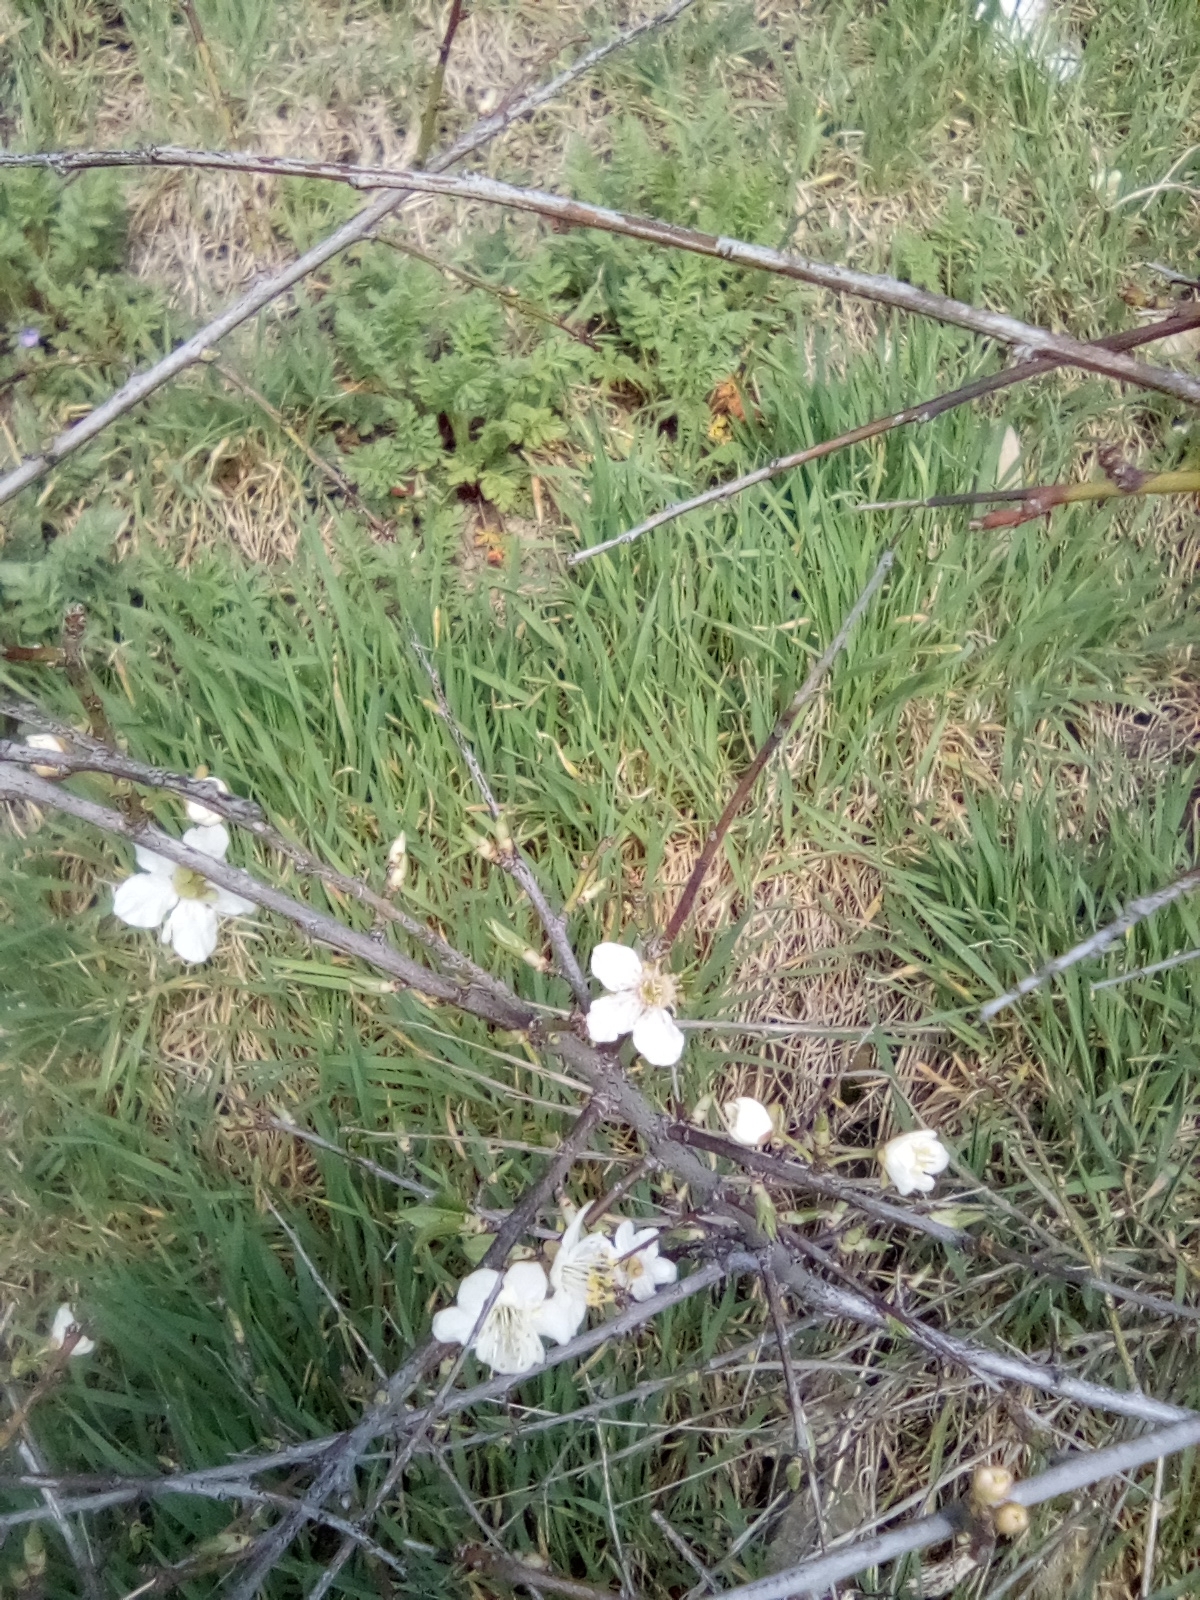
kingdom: Plantae
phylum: Tracheophyta
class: Magnoliopsida
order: Rosales
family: Rosaceae
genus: Prunus
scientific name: Prunus spinosa
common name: Blackthorn
